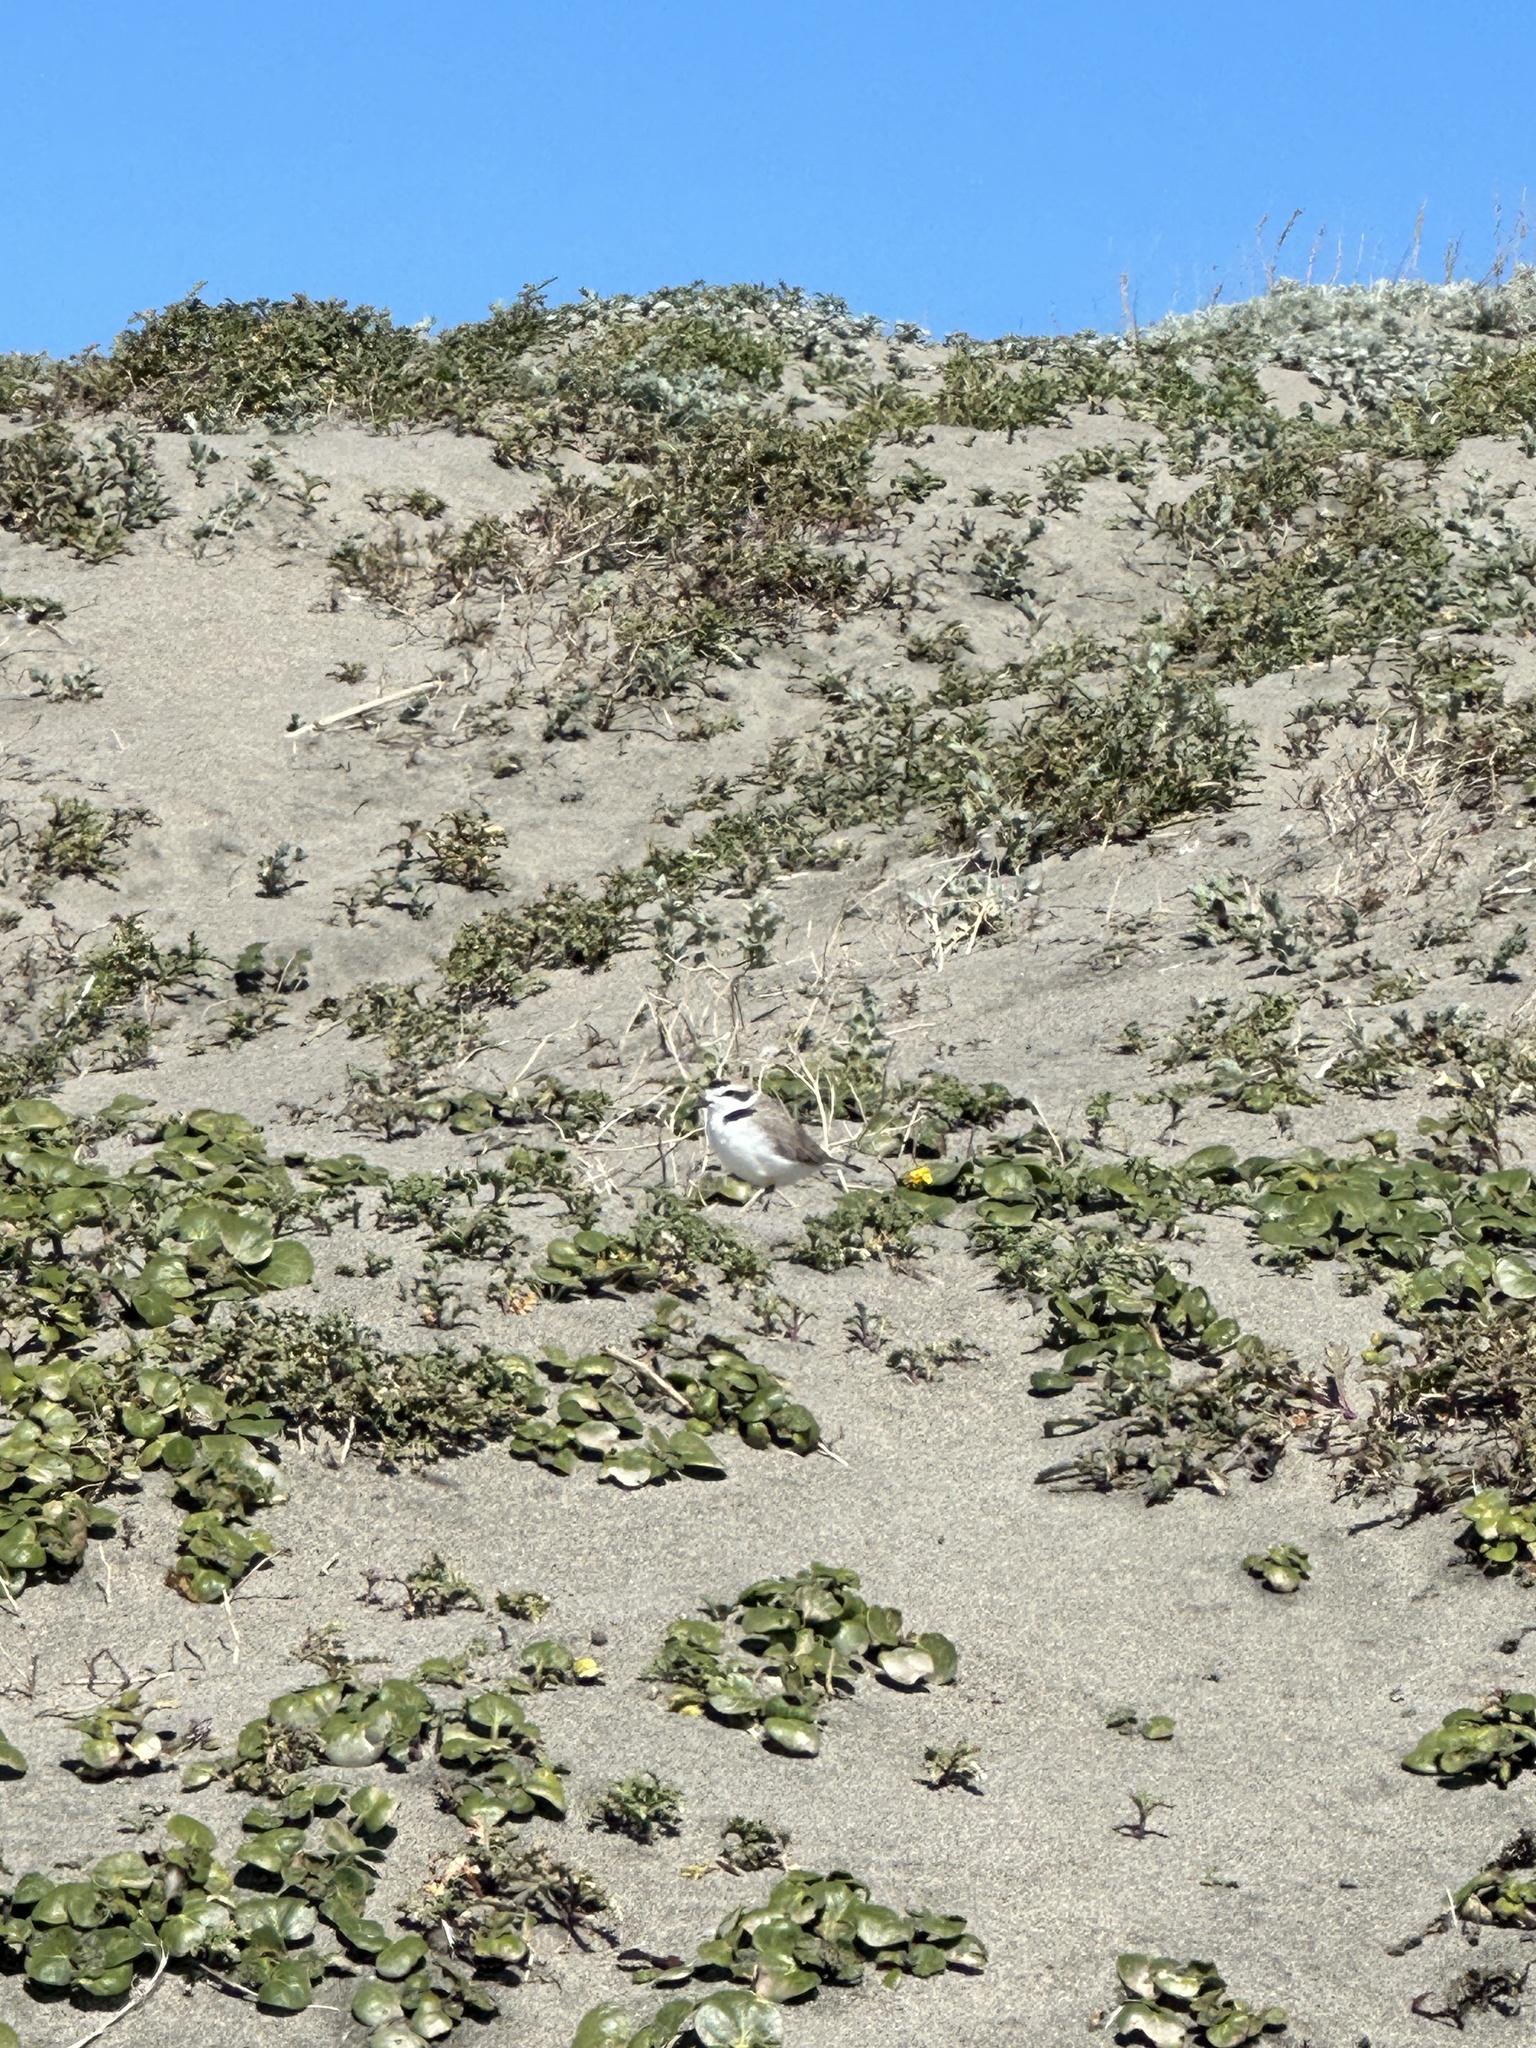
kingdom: Animalia
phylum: Chordata
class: Aves
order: Charadriiformes
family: Charadriidae
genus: Anarhynchus
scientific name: Anarhynchus
